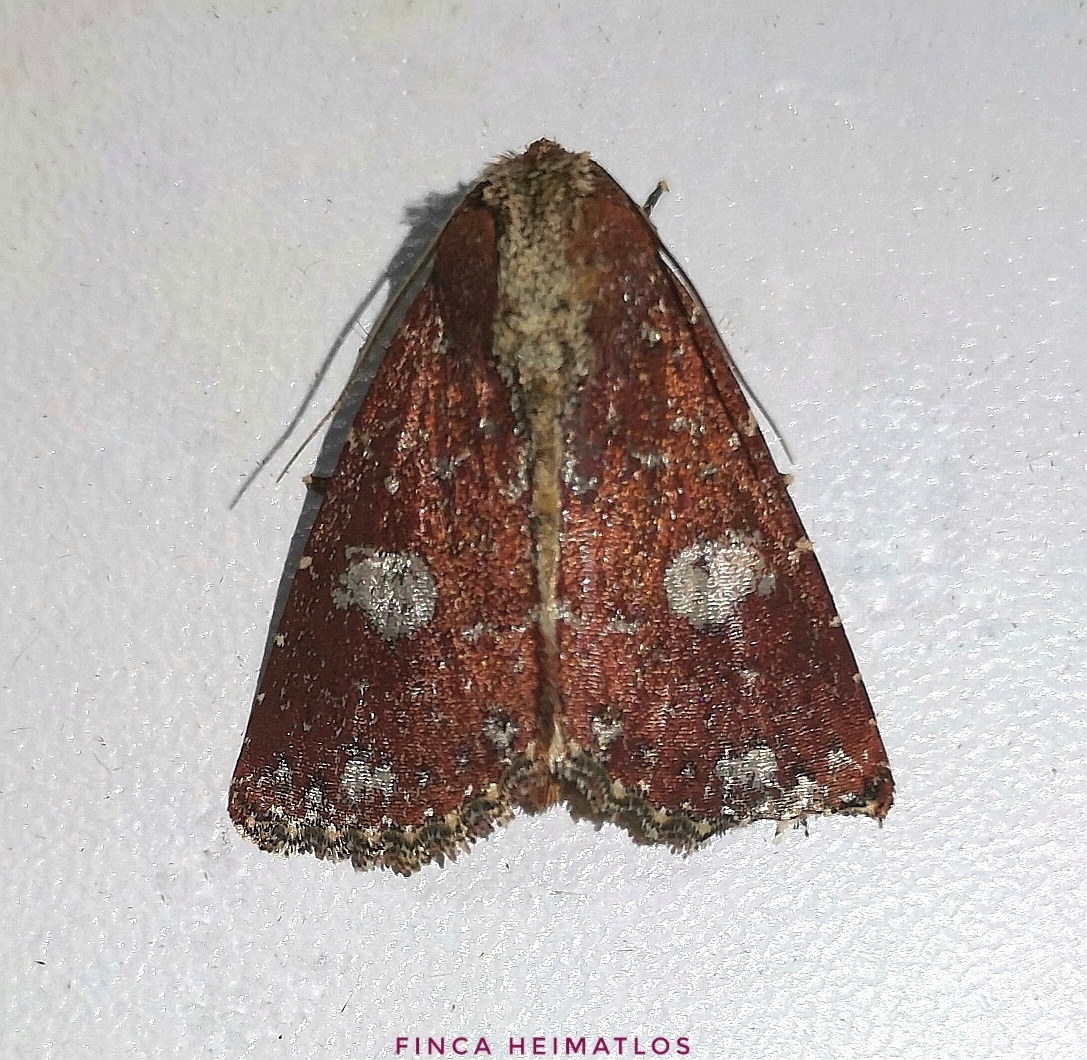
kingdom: Animalia
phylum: Arthropoda
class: Insecta
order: Lepidoptera
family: Noctuidae
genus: Condica
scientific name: Condica griseirena
